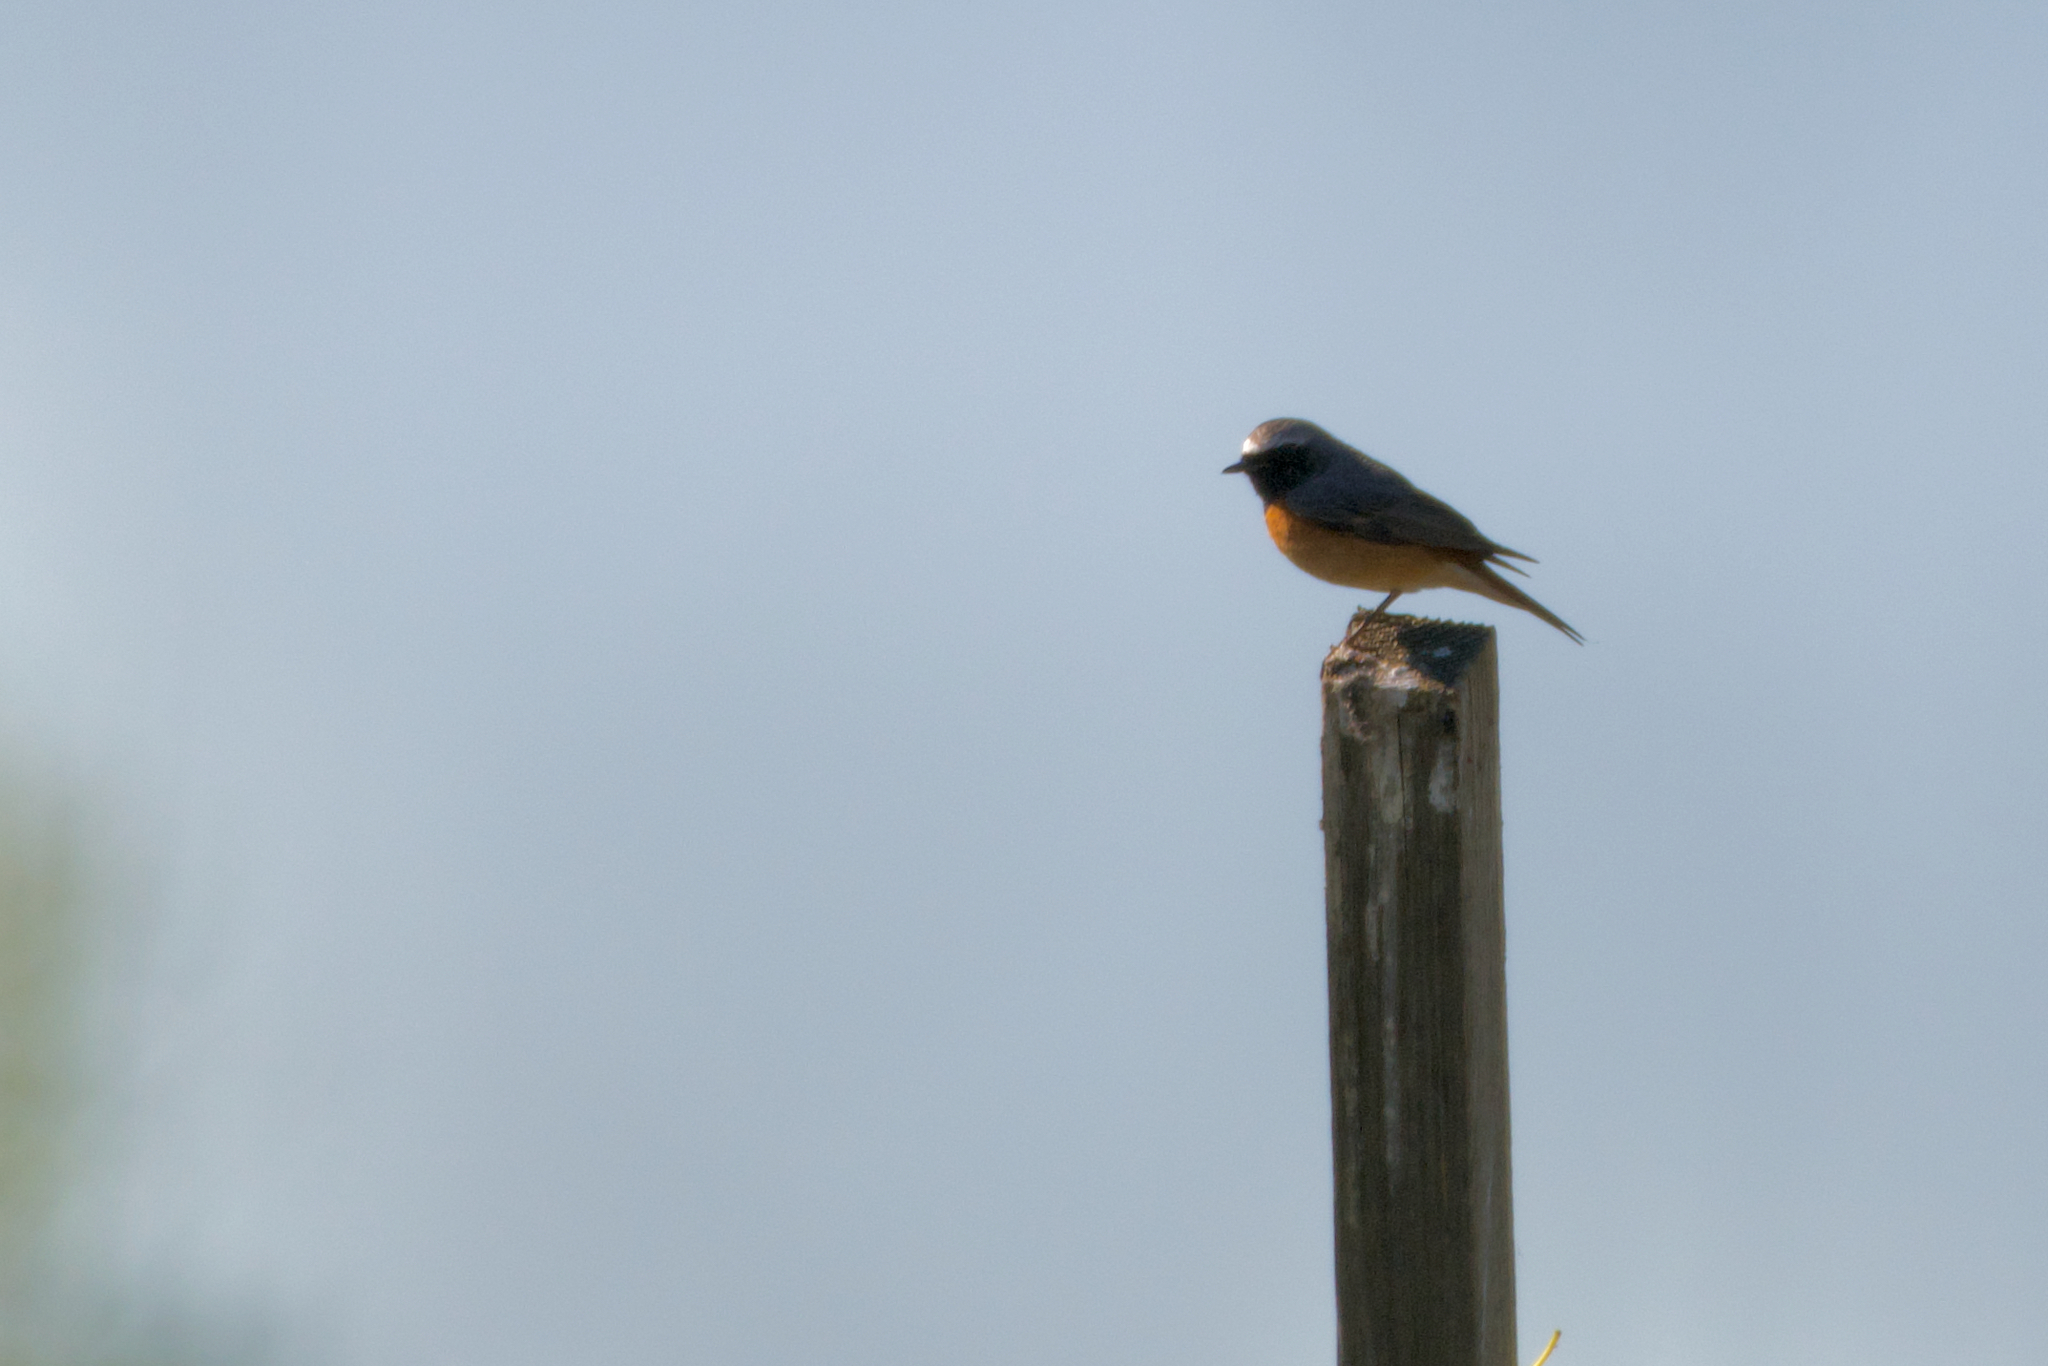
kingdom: Animalia
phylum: Chordata
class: Aves
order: Passeriformes
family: Muscicapidae
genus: Phoenicurus
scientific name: Phoenicurus phoenicurus
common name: Common redstart
